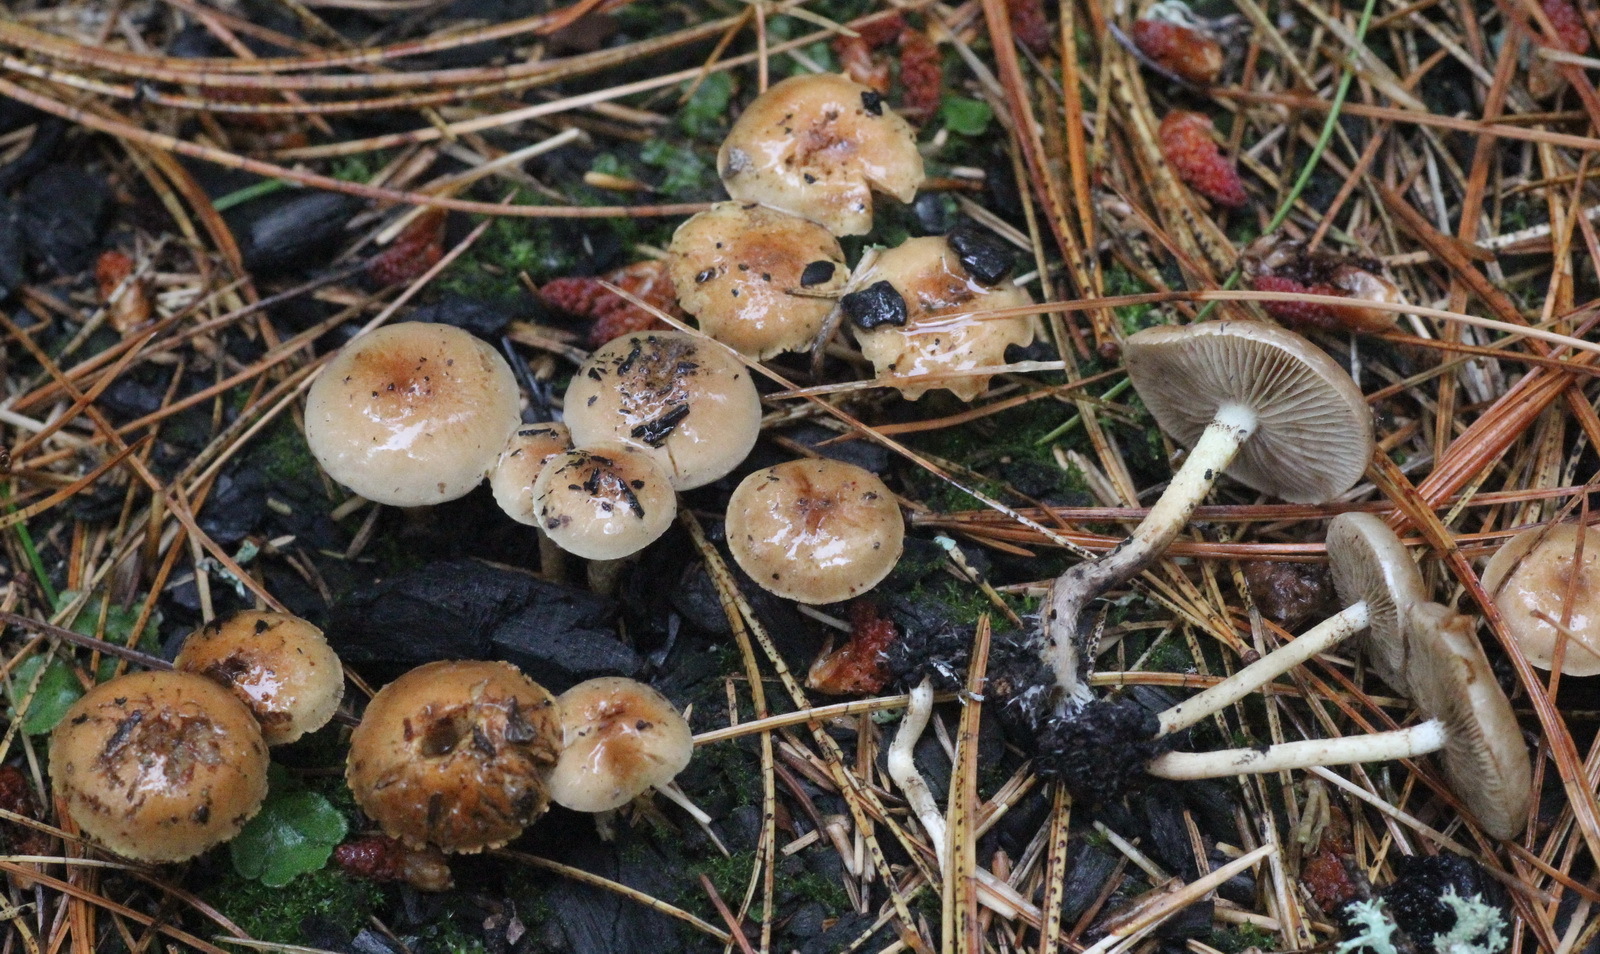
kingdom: Fungi
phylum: Basidiomycota
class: Agaricomycetes
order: Agaricales
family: Strophariaceae
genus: Pholiota
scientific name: Pholiota carbonaria
